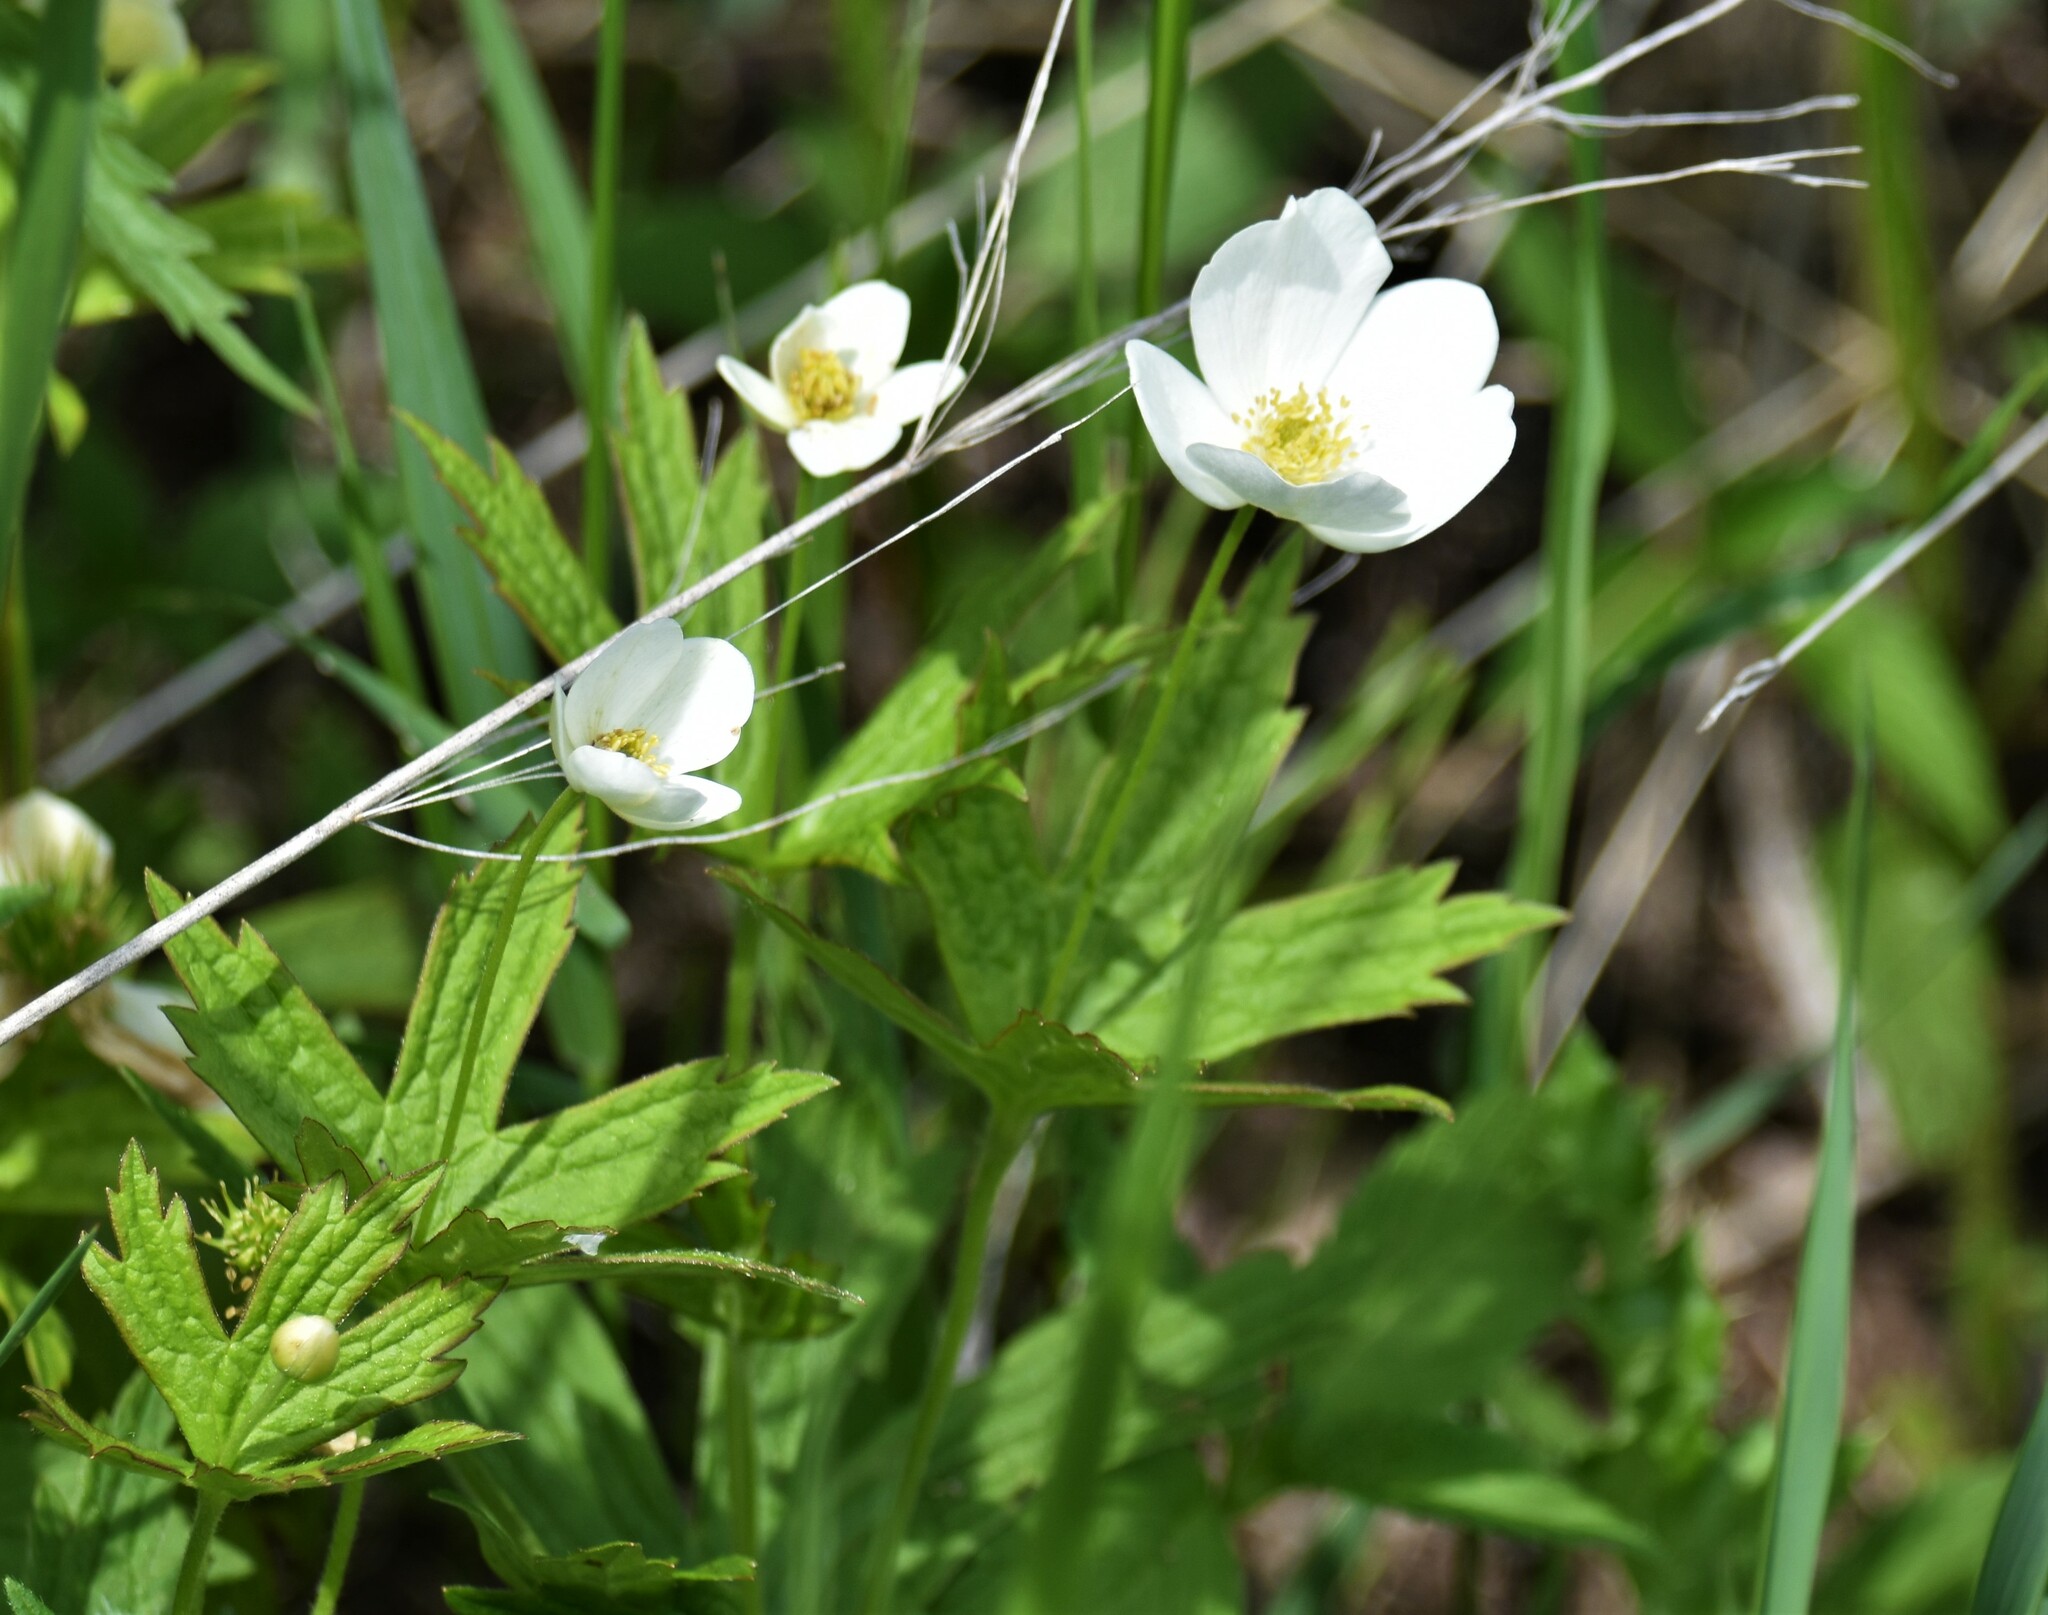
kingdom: Plantae
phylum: Tracheophyta
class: Magnoliopsida
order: Ranunculales
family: Ranunculaceae
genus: Anemonastrum
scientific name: Anemonastrum canadense
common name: Canada anemone
